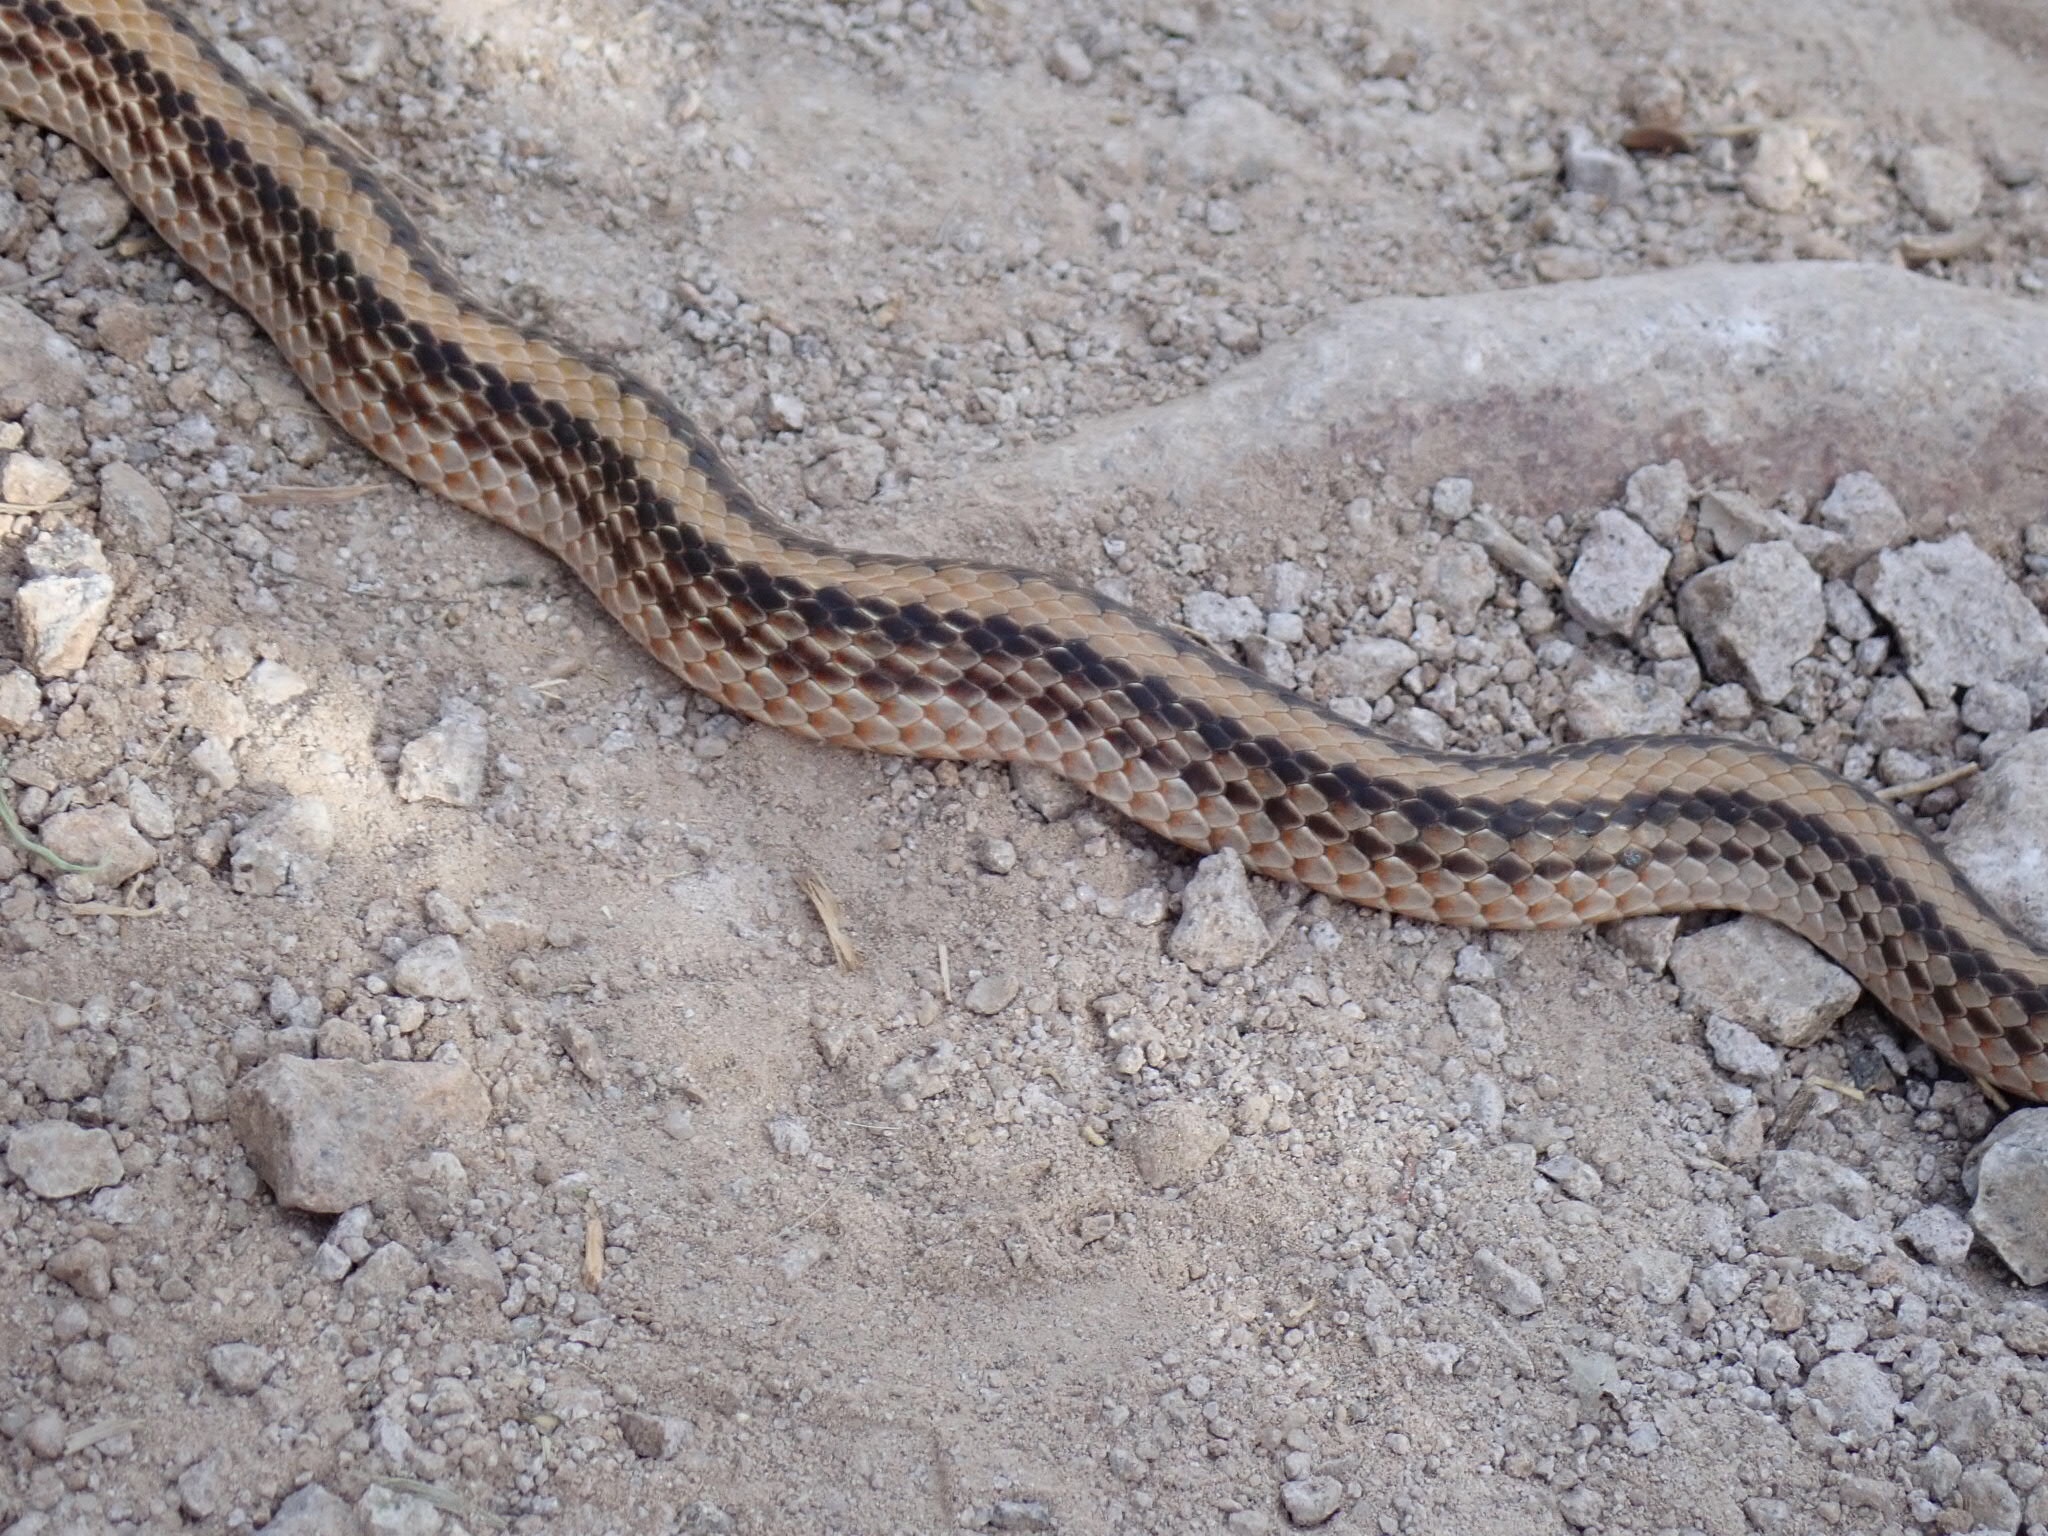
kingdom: Animalia
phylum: Chordata
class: Squamata
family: Colubridae
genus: Salvadora
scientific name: Salvadora hexalepis
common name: Western patchnose snake
